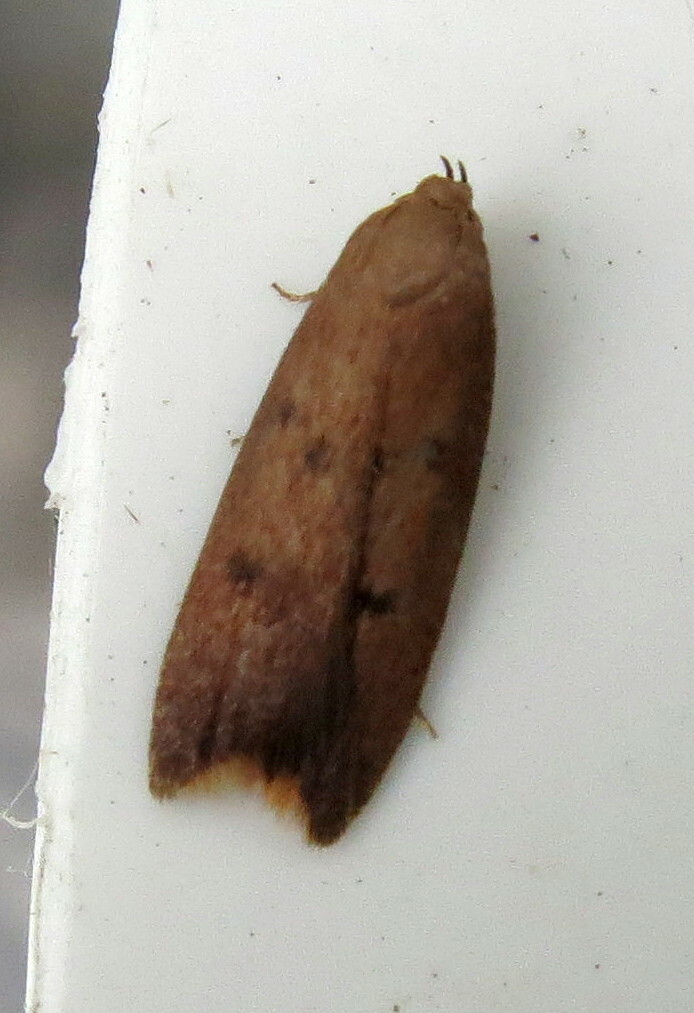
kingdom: Animalia
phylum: Arthropoda
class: Insecta
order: Lepidoptera
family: Oecophoridae
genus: Tachystola
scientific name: Tachystola acroxantha
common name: Ruddy streak
